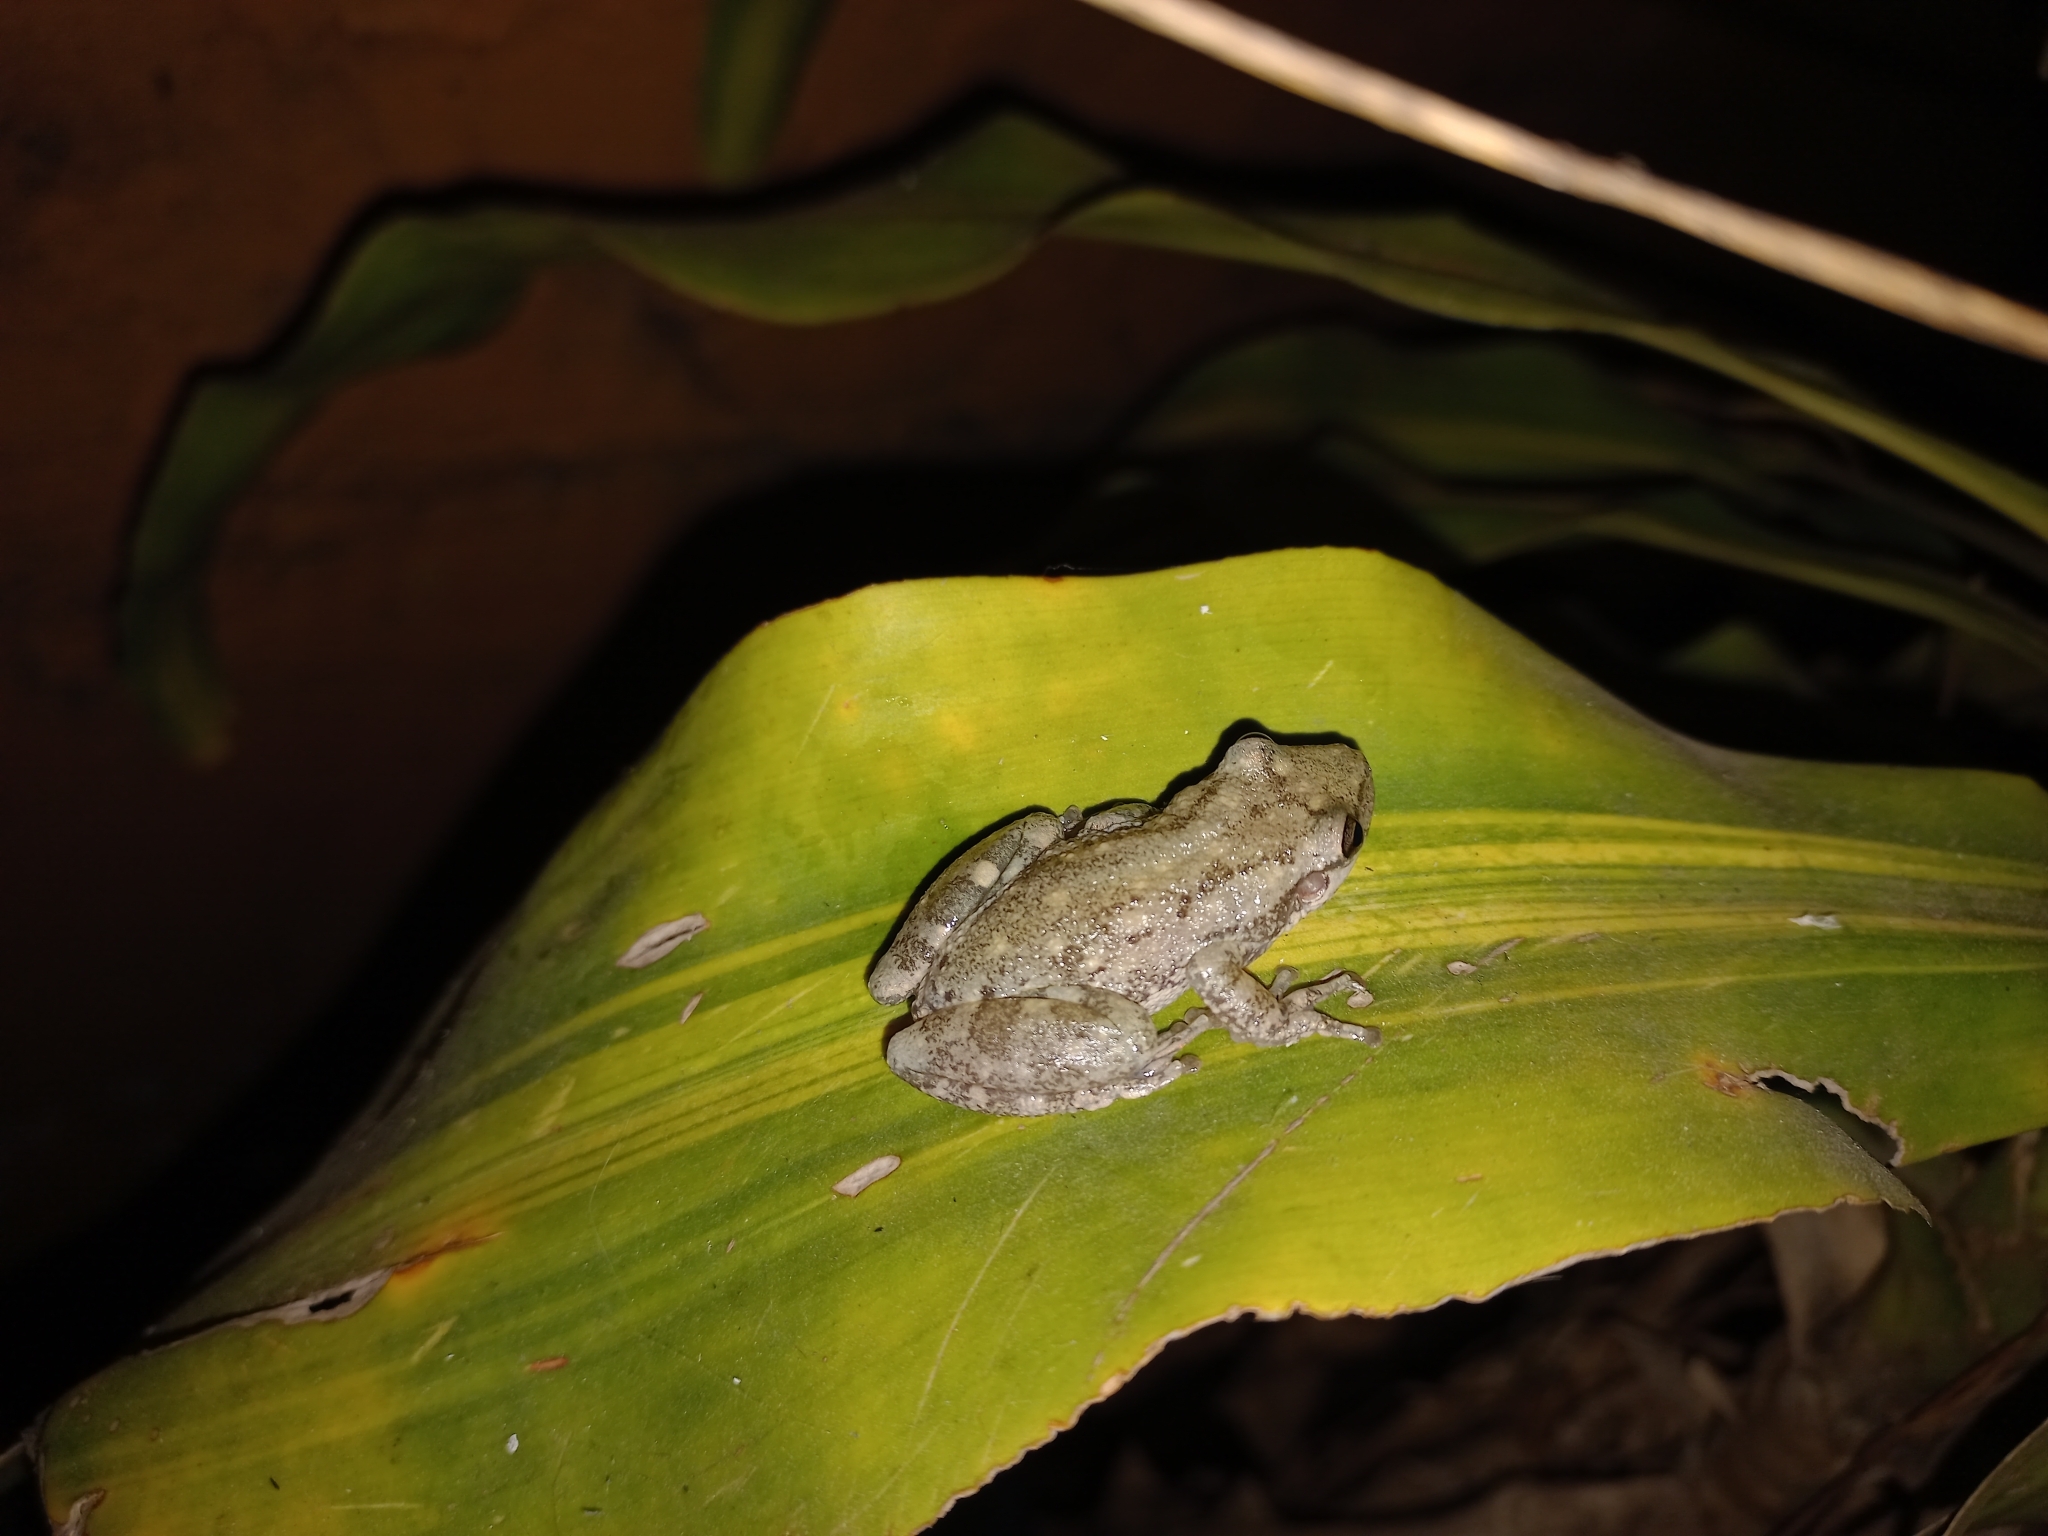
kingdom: Animalia
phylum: Chordata
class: Amphibia
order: Anura
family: Hylidae
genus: Scinax
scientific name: Scinax nasicus
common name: Lesser snouted treefrog
